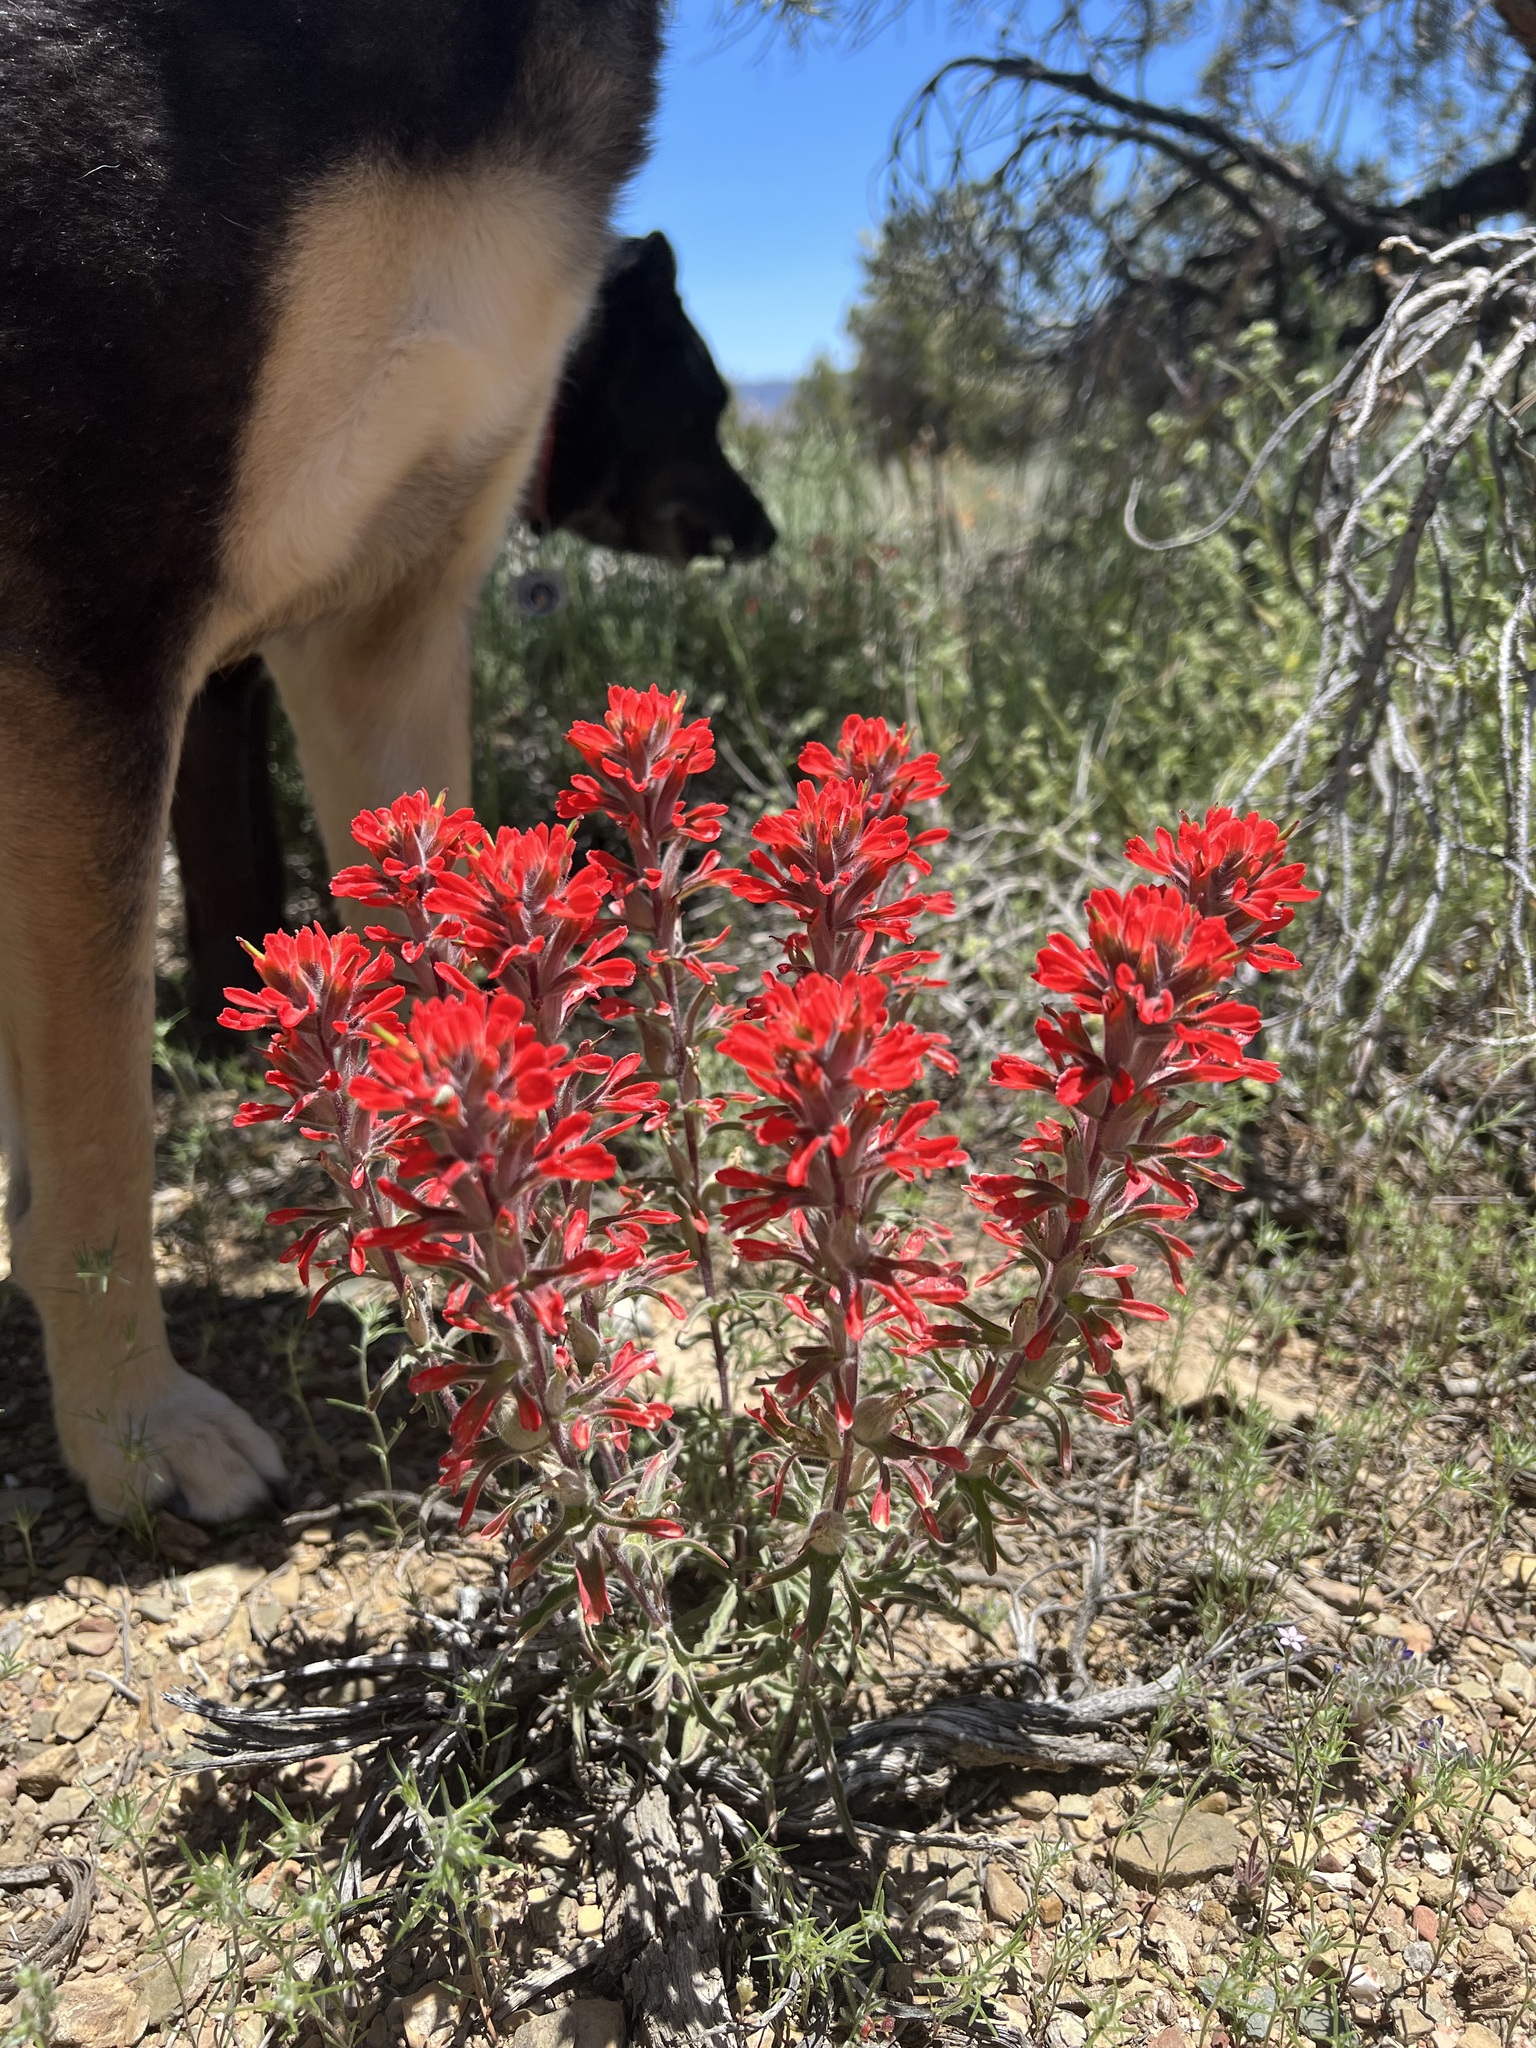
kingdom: Plantae
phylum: Tracheophyta
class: Magnoliopsida
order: Lamiales
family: Orobanchaceae
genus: Castilleja
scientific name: Castilleja chromosa
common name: Desert paintbrush
